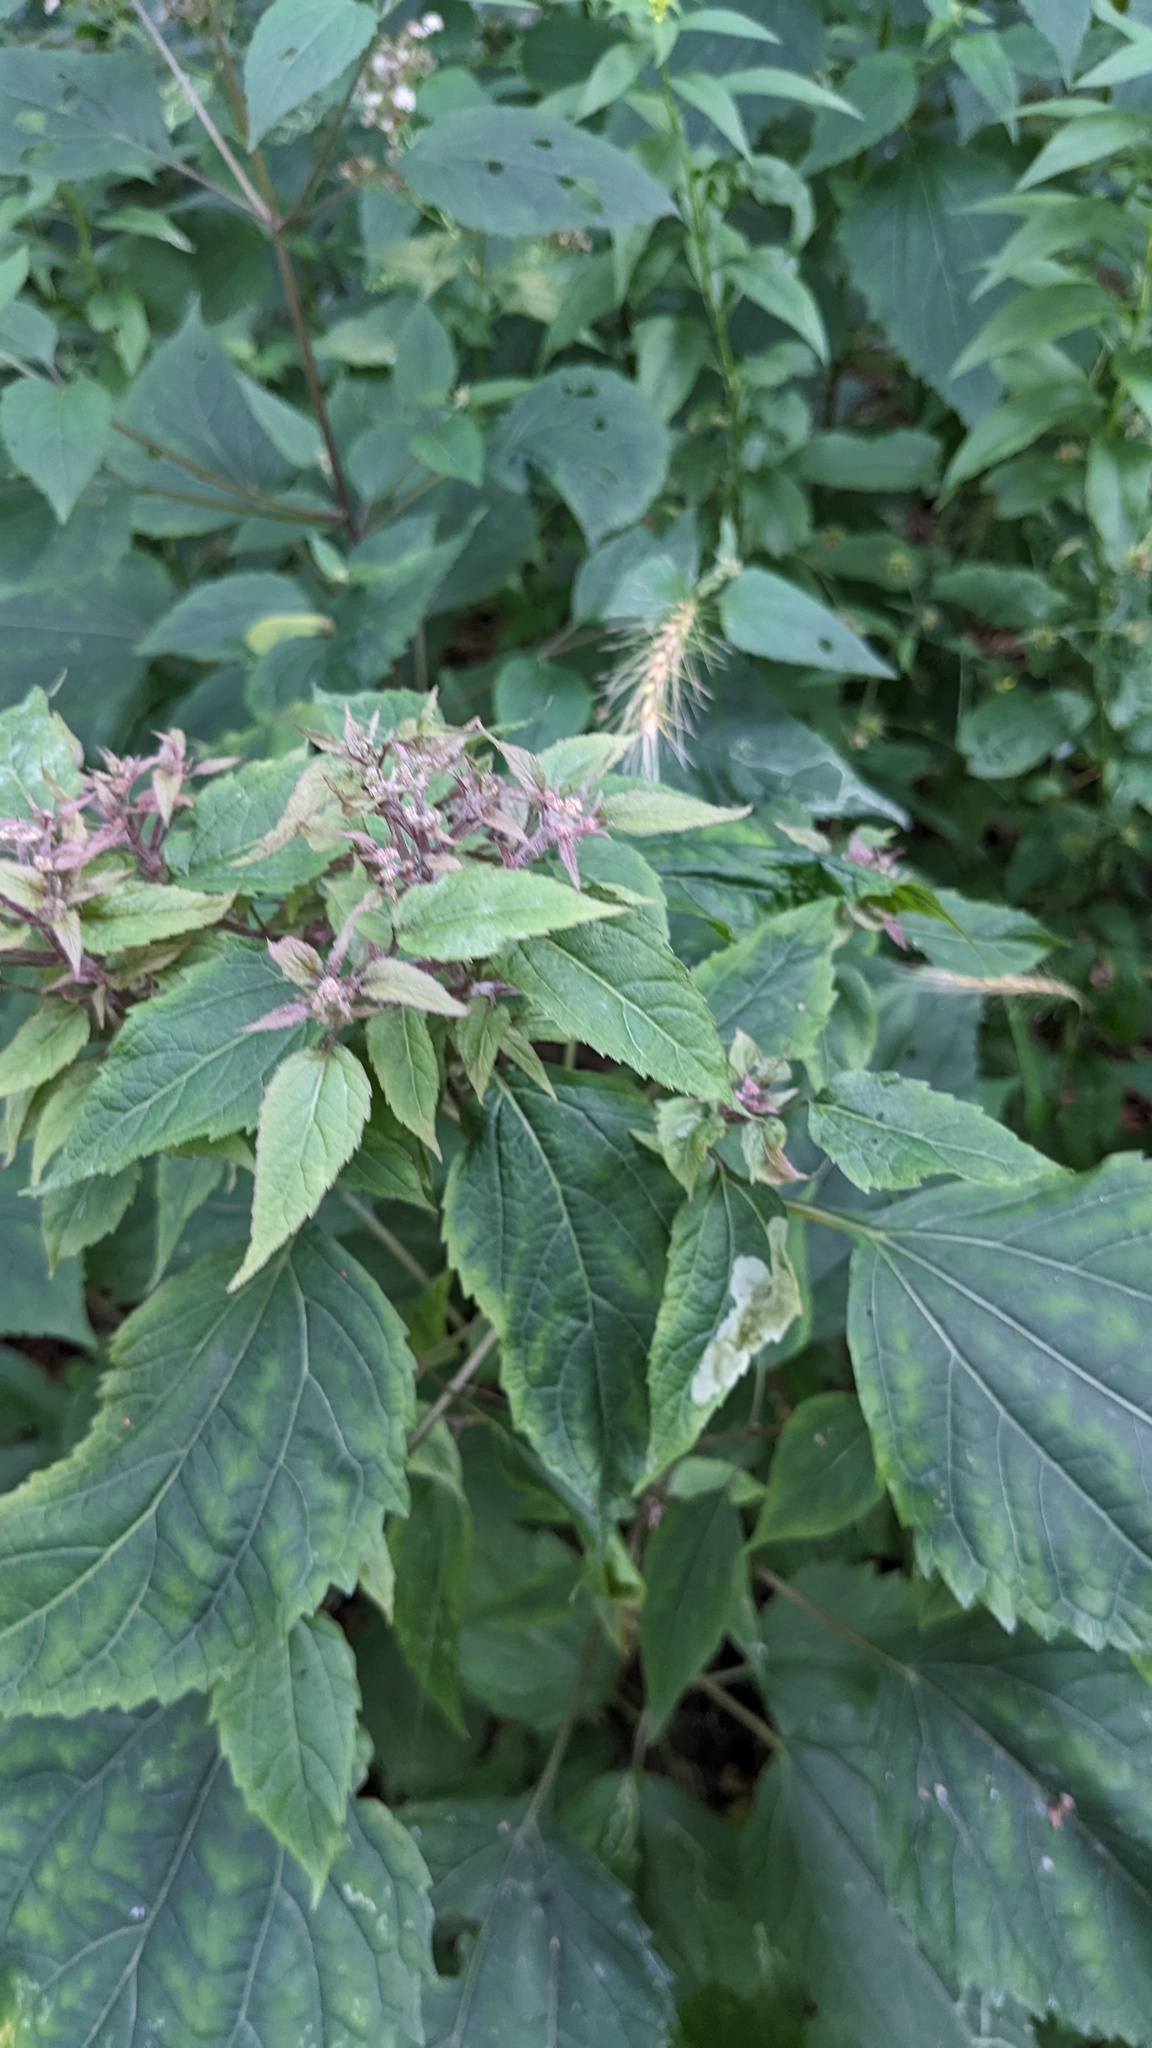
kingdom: Plantae
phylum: Tracheophyta
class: Magnoliopsida
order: Asterales
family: Asteraceae
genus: Ageratina
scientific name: Ageratina altissima
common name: White snakeroot
